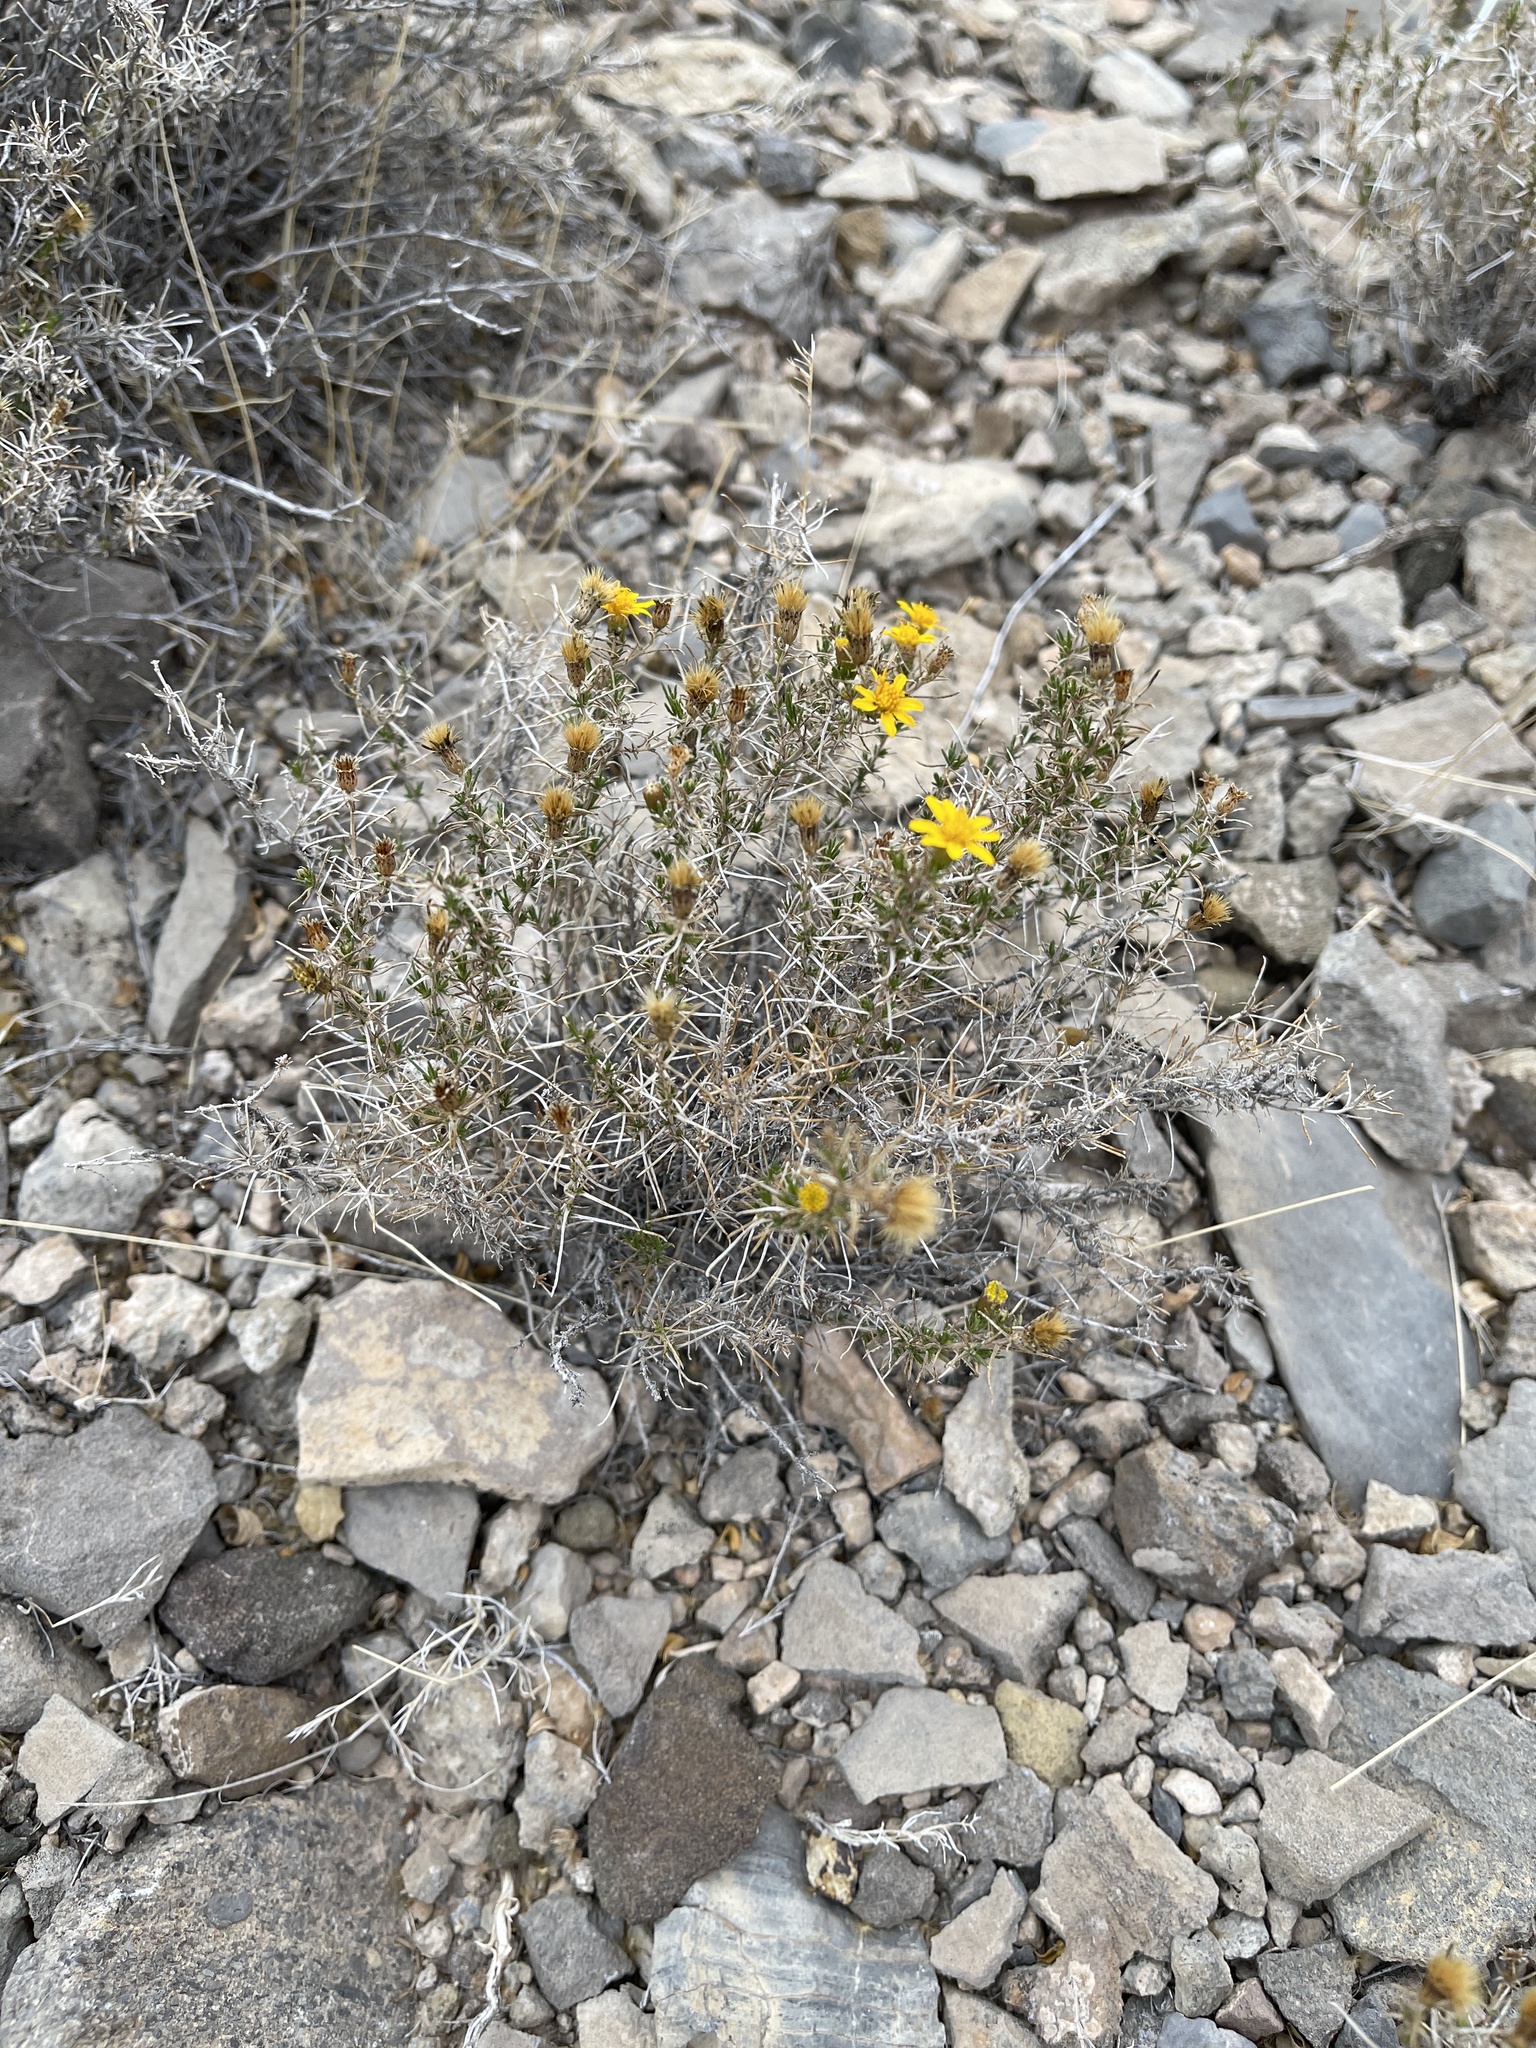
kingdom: Plantae
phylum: Tracheophyta
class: Magnoliopsida
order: Asterales
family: Asteraceae
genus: Thymophylla
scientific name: Thymophylla acerosa
